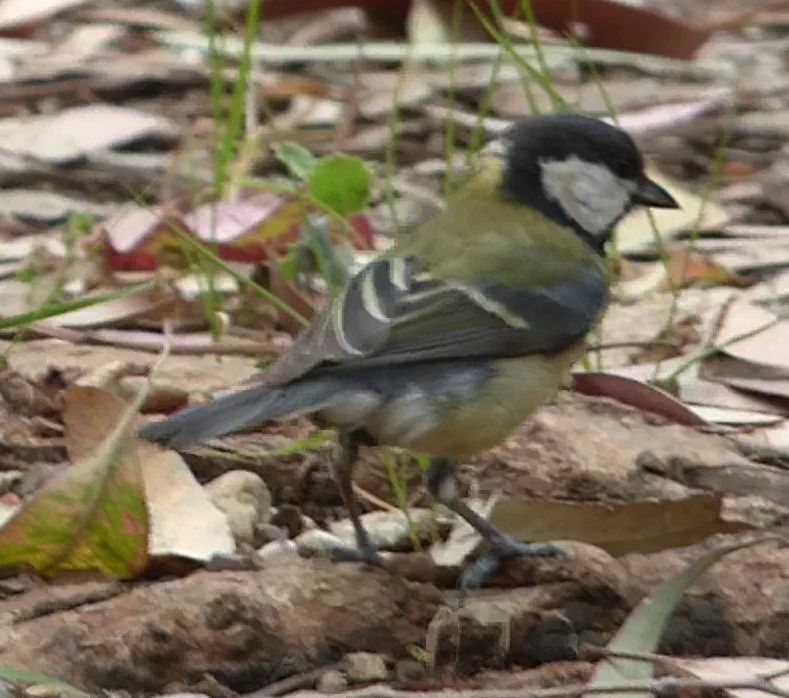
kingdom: Animalia
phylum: Chordata
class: Aves
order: Passeriformes
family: Paridae
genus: Parus
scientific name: Parus major
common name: Great tit
